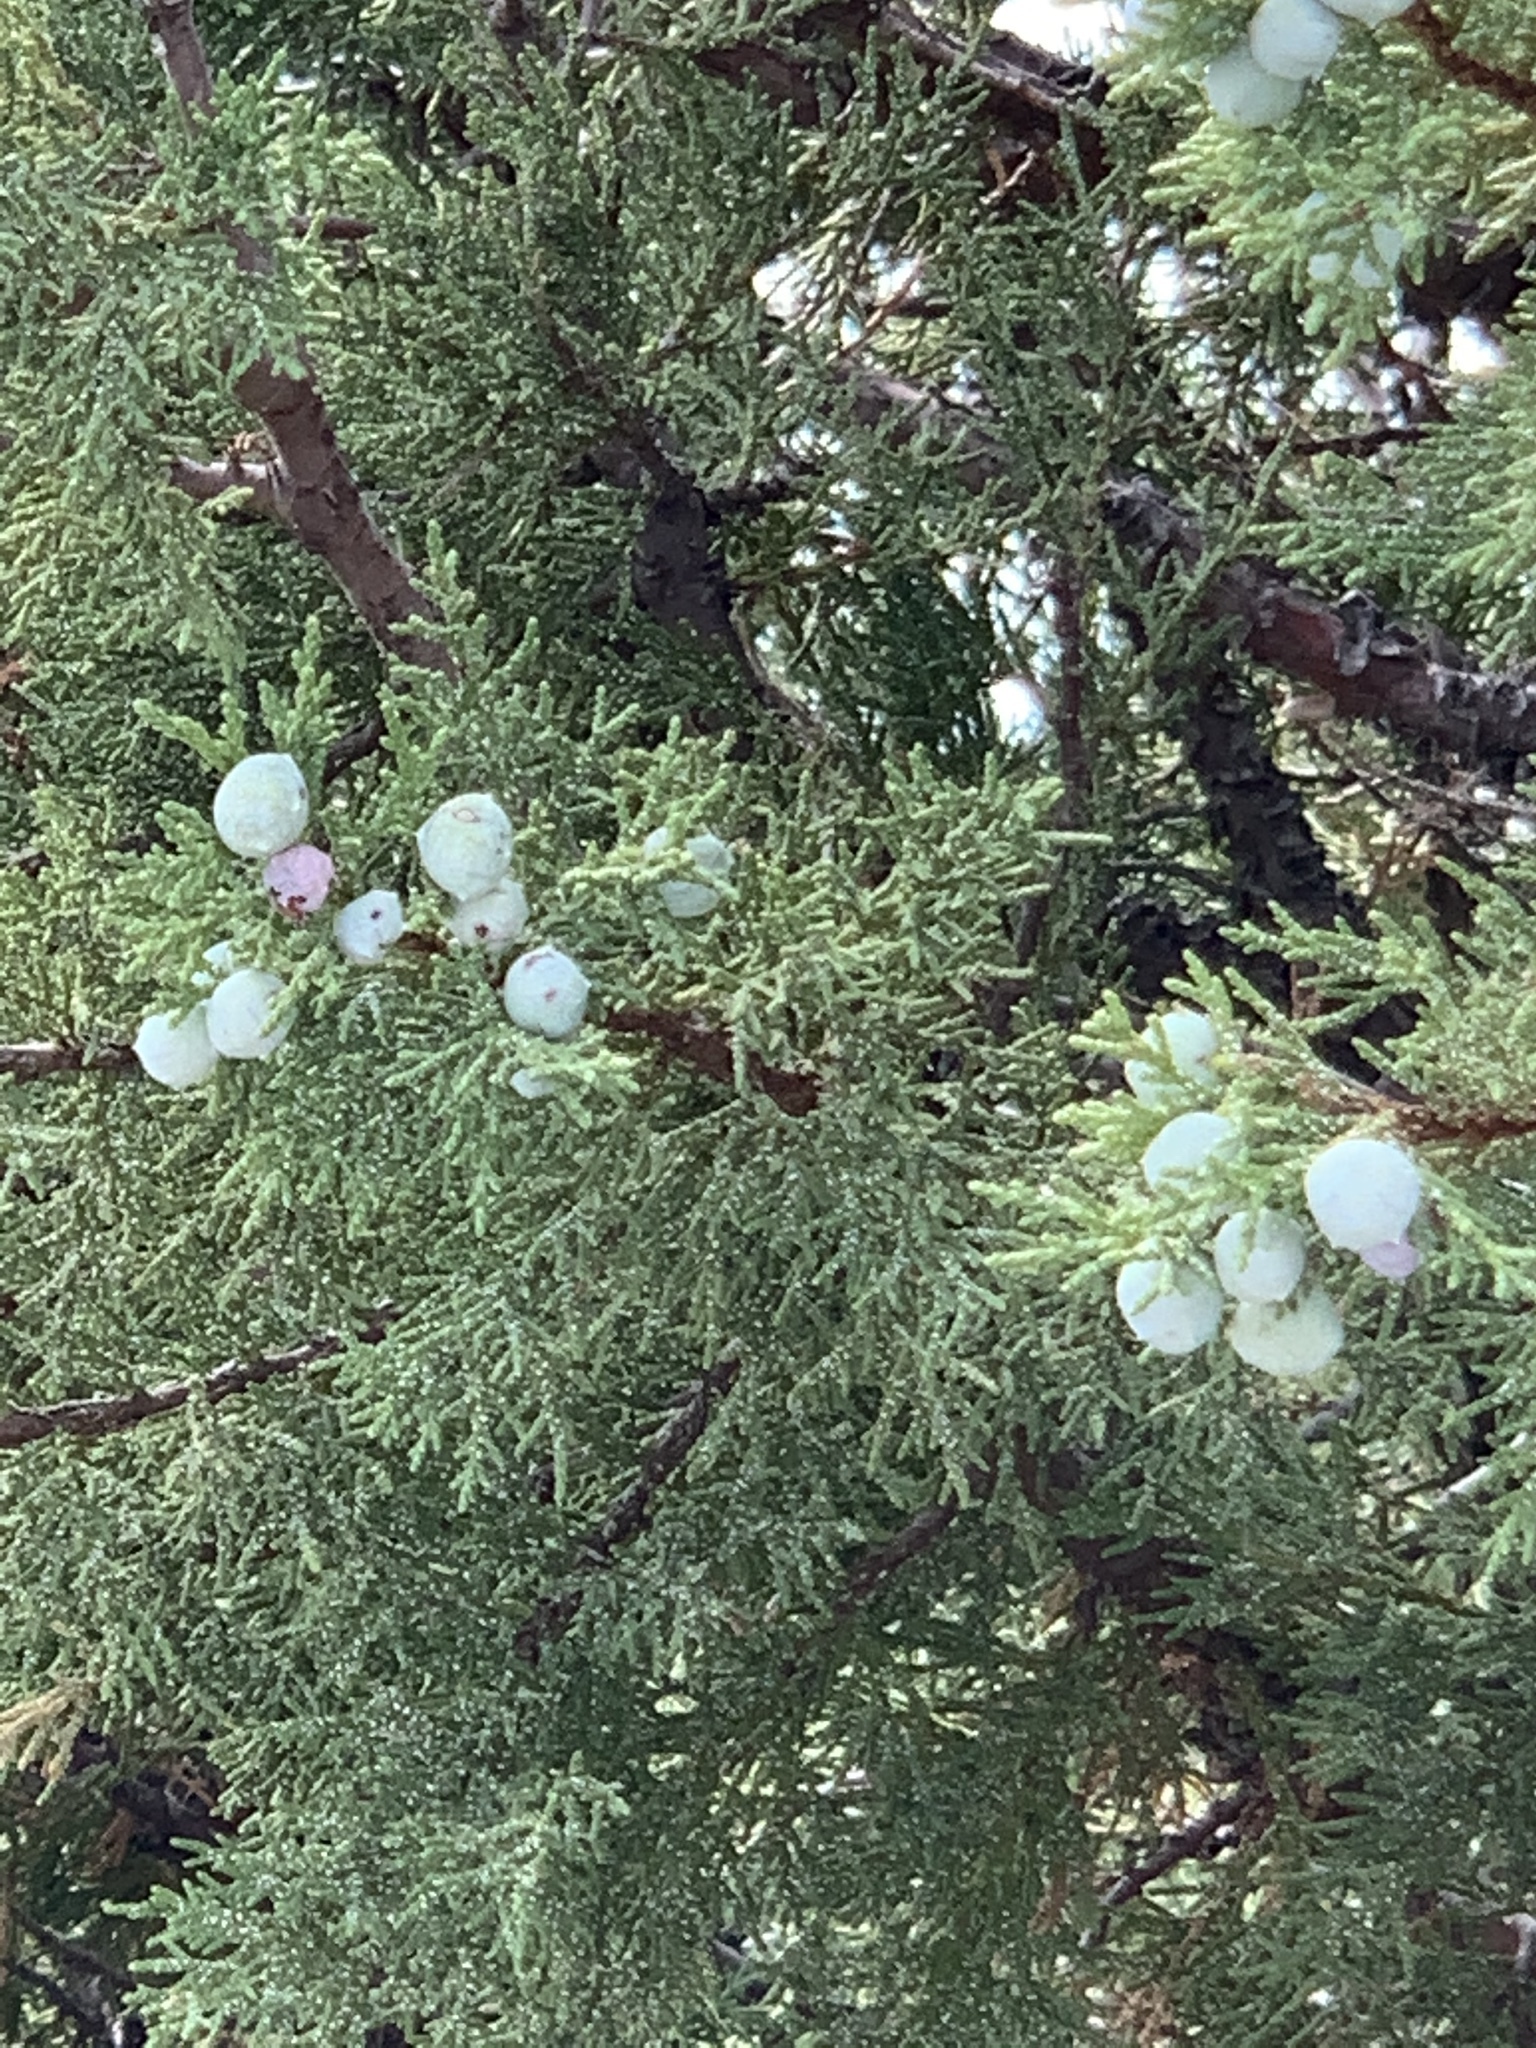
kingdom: Plantae
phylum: Tracheophyta
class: Pinopsida
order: Pinales
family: Cupressaceae
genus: Juniperus
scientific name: Juniperus deppeana
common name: Alligator juniper
